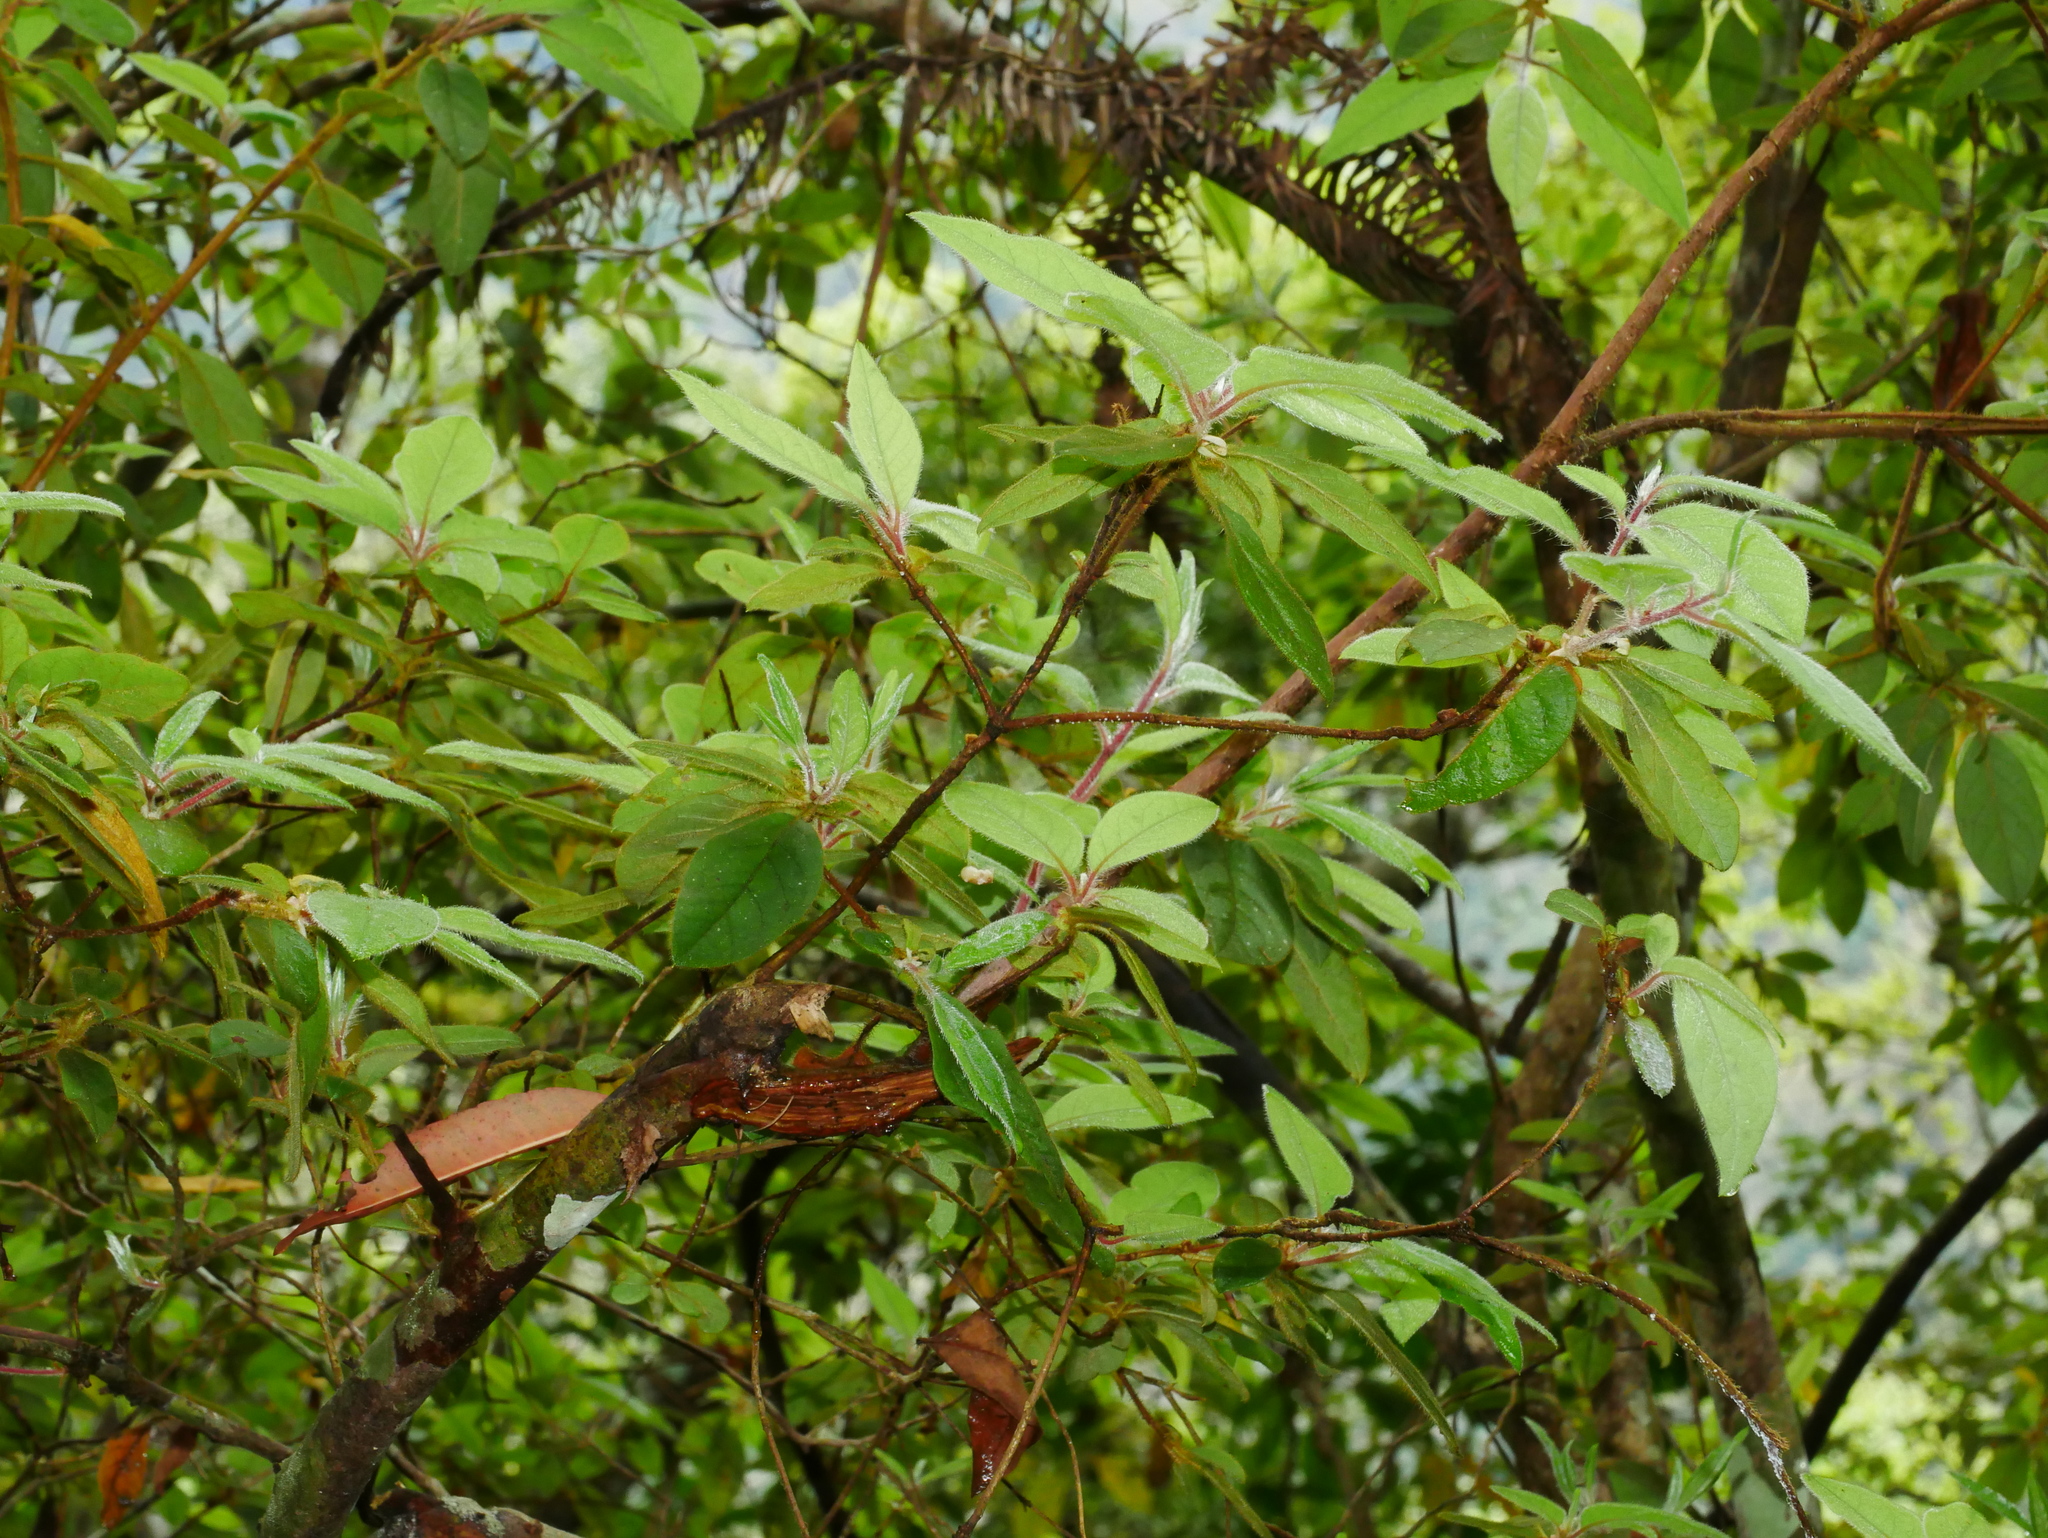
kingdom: Plantae
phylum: Tracheophyta
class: Magnoliopsida
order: Ericales
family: Ericaceae
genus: Rhododendron
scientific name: Rhododendron oldhamii
